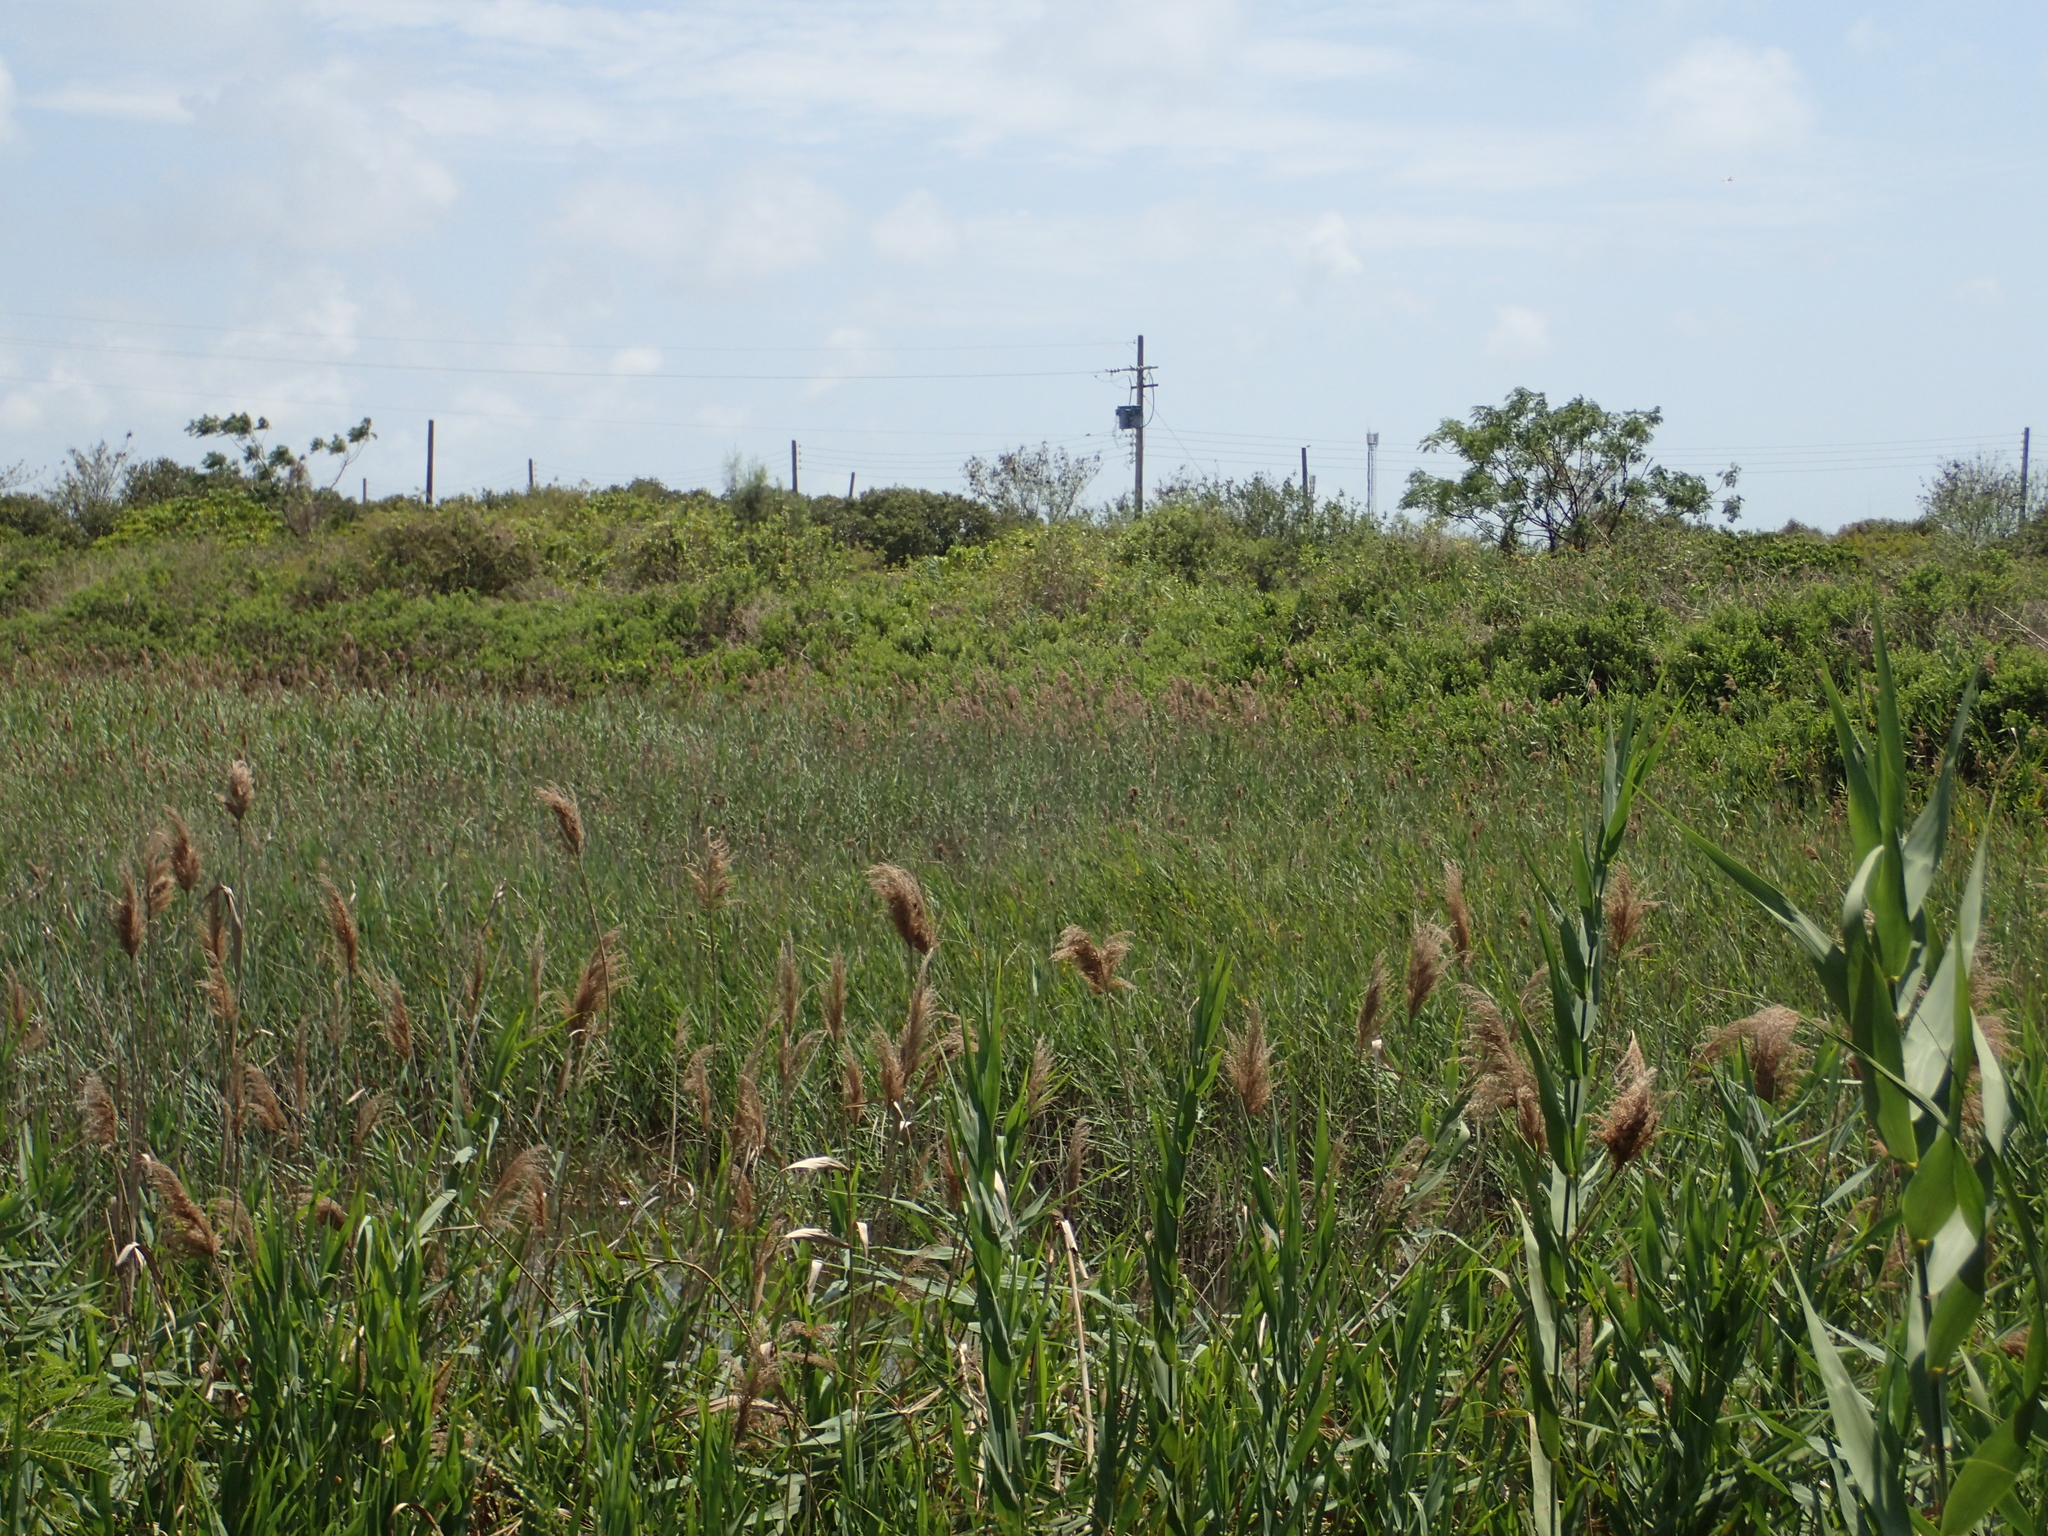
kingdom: Plantae
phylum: Tracheophyta
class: Liliopsida
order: Poales
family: Poaceae
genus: Phragmites
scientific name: Phragmites australis
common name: Common reed
